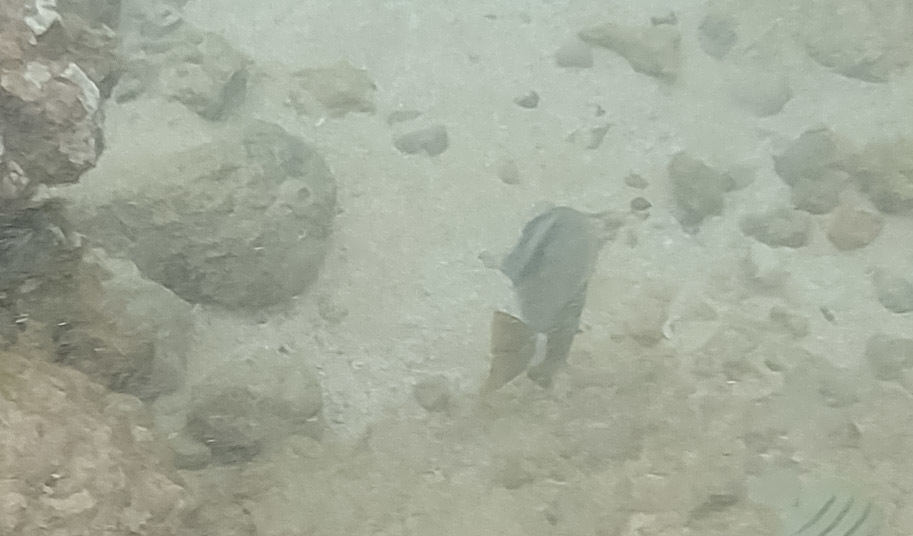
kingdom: Animalia
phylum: Chordata
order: Perciformes
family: Acanthuridae
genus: Acanthurus
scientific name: Acanthurus leucopareius
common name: Head-band surgeonfish
